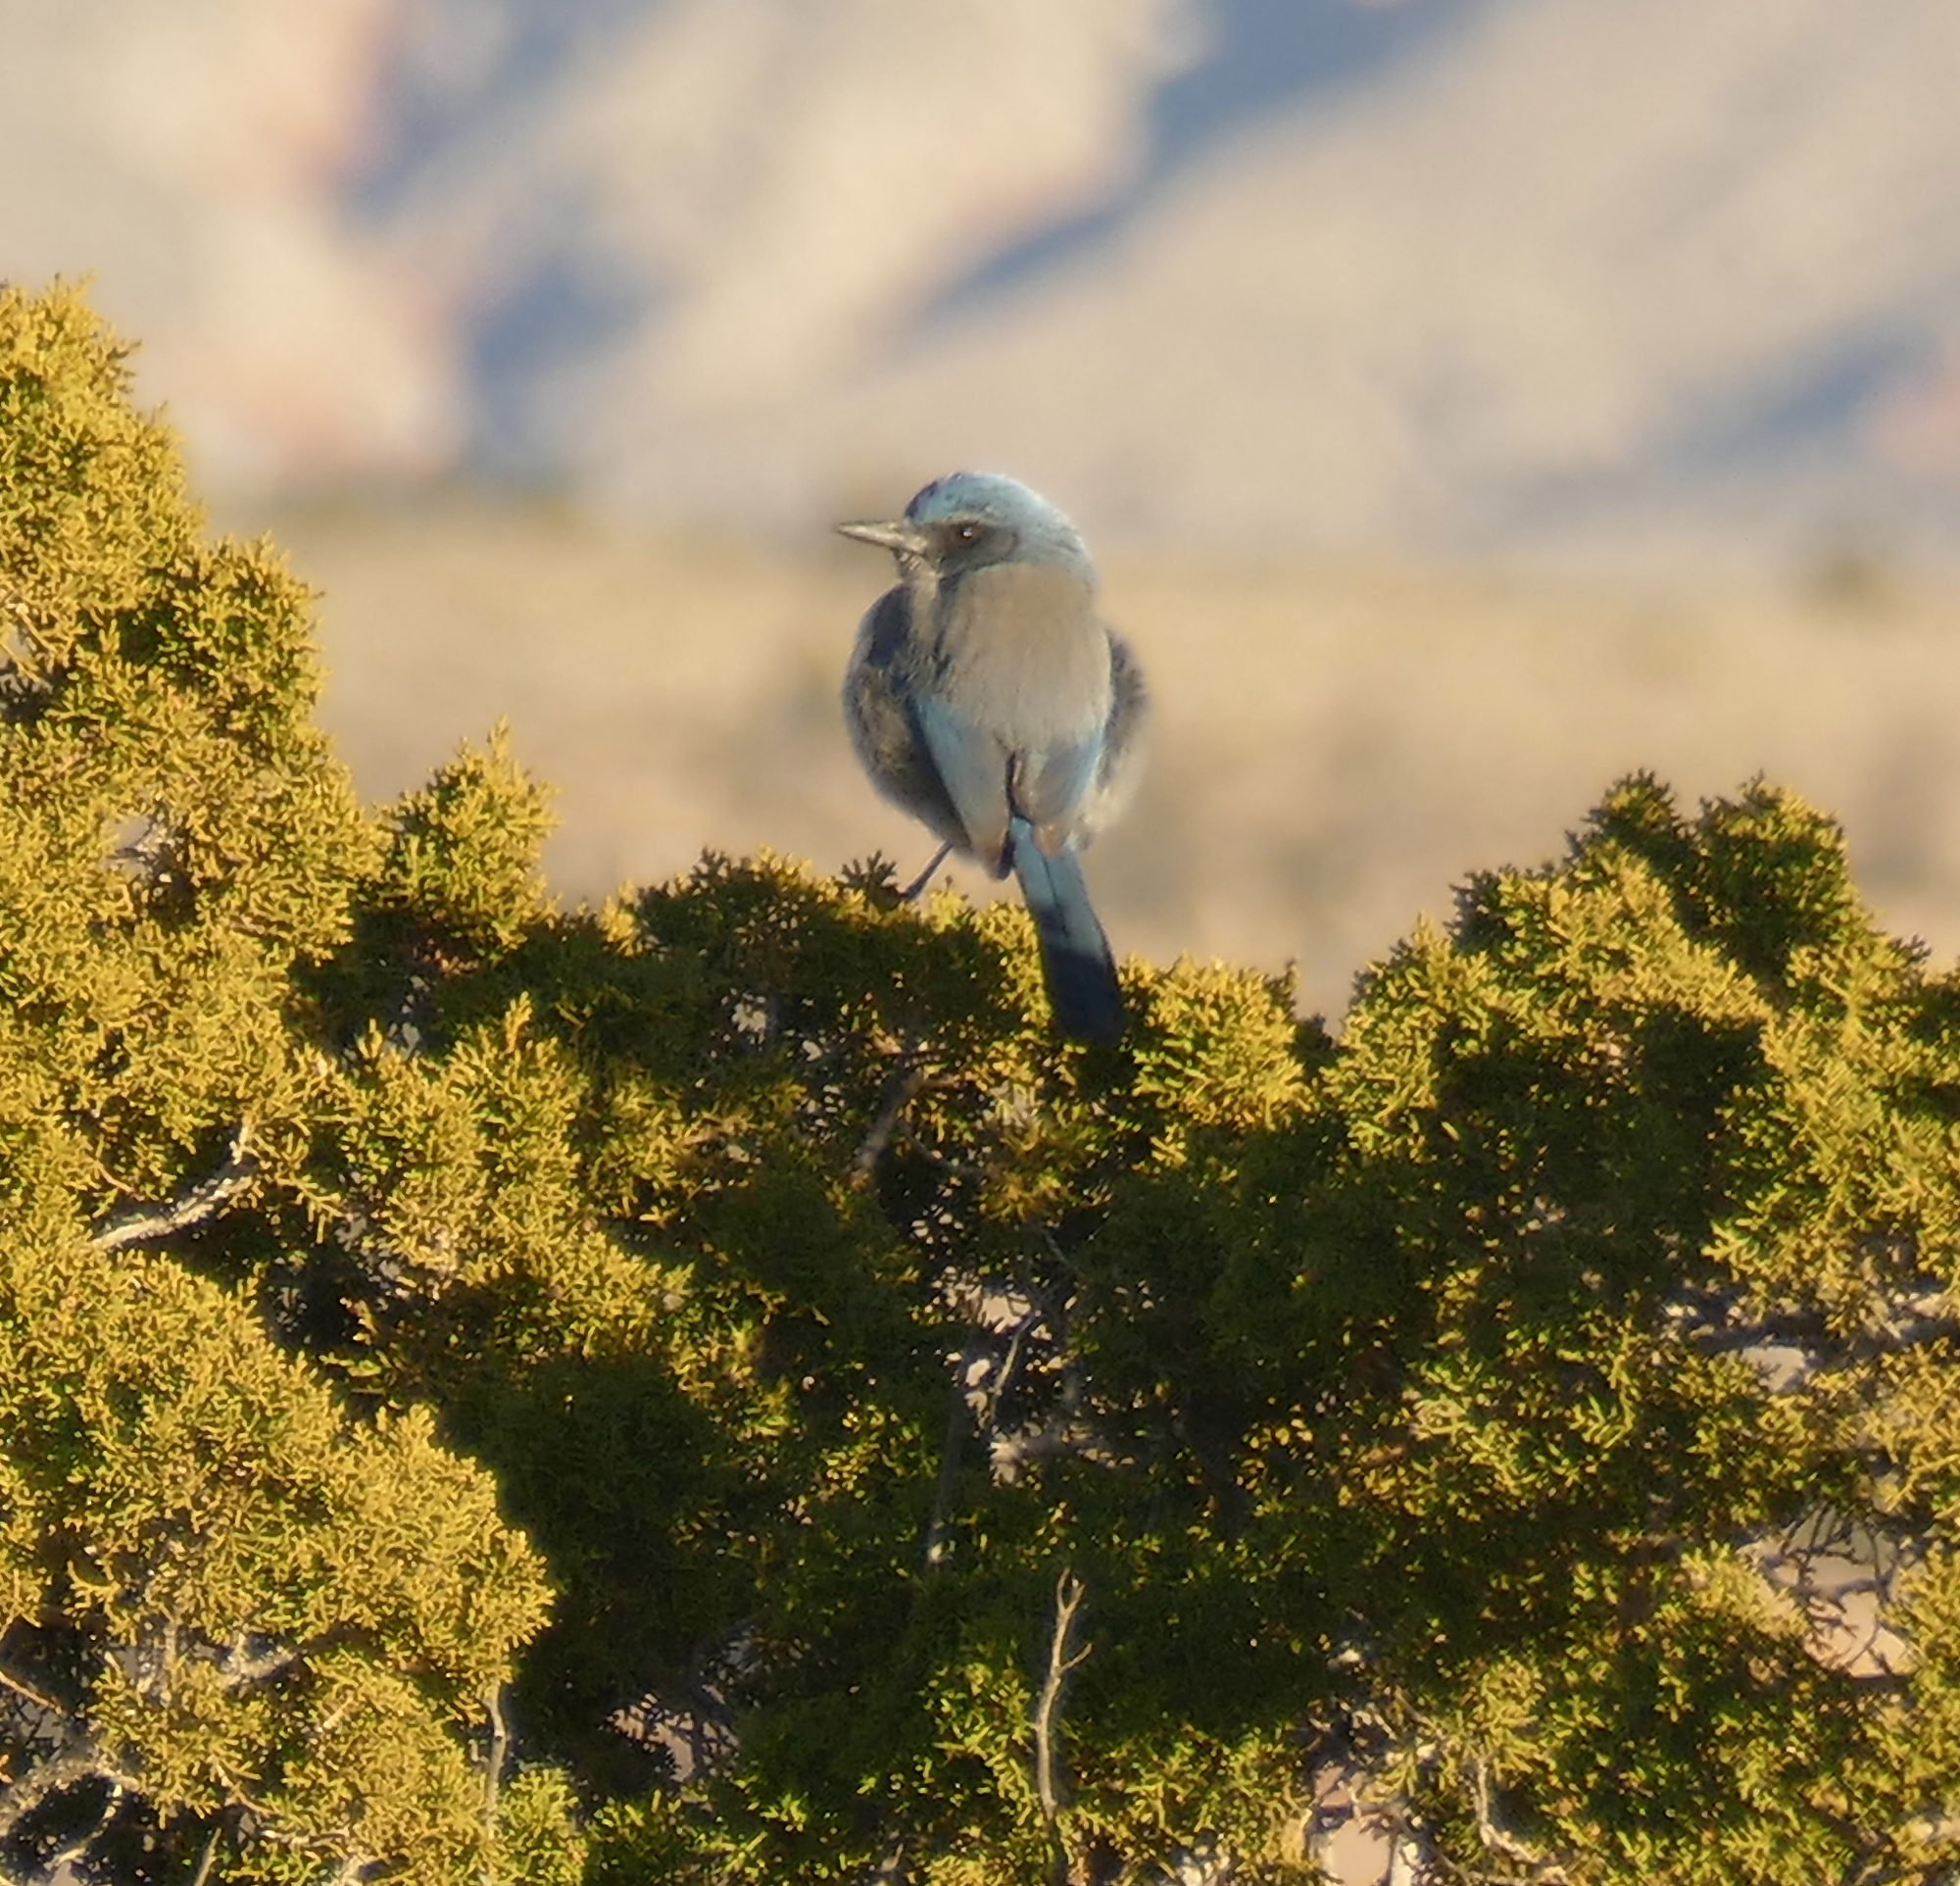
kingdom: Animalia
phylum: Chordata
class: Aves
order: Passeriformes
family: Corvidae
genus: Aphelocoma
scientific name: Aphelocoma woodhouseii
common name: Woodhouse's scrub-jay
